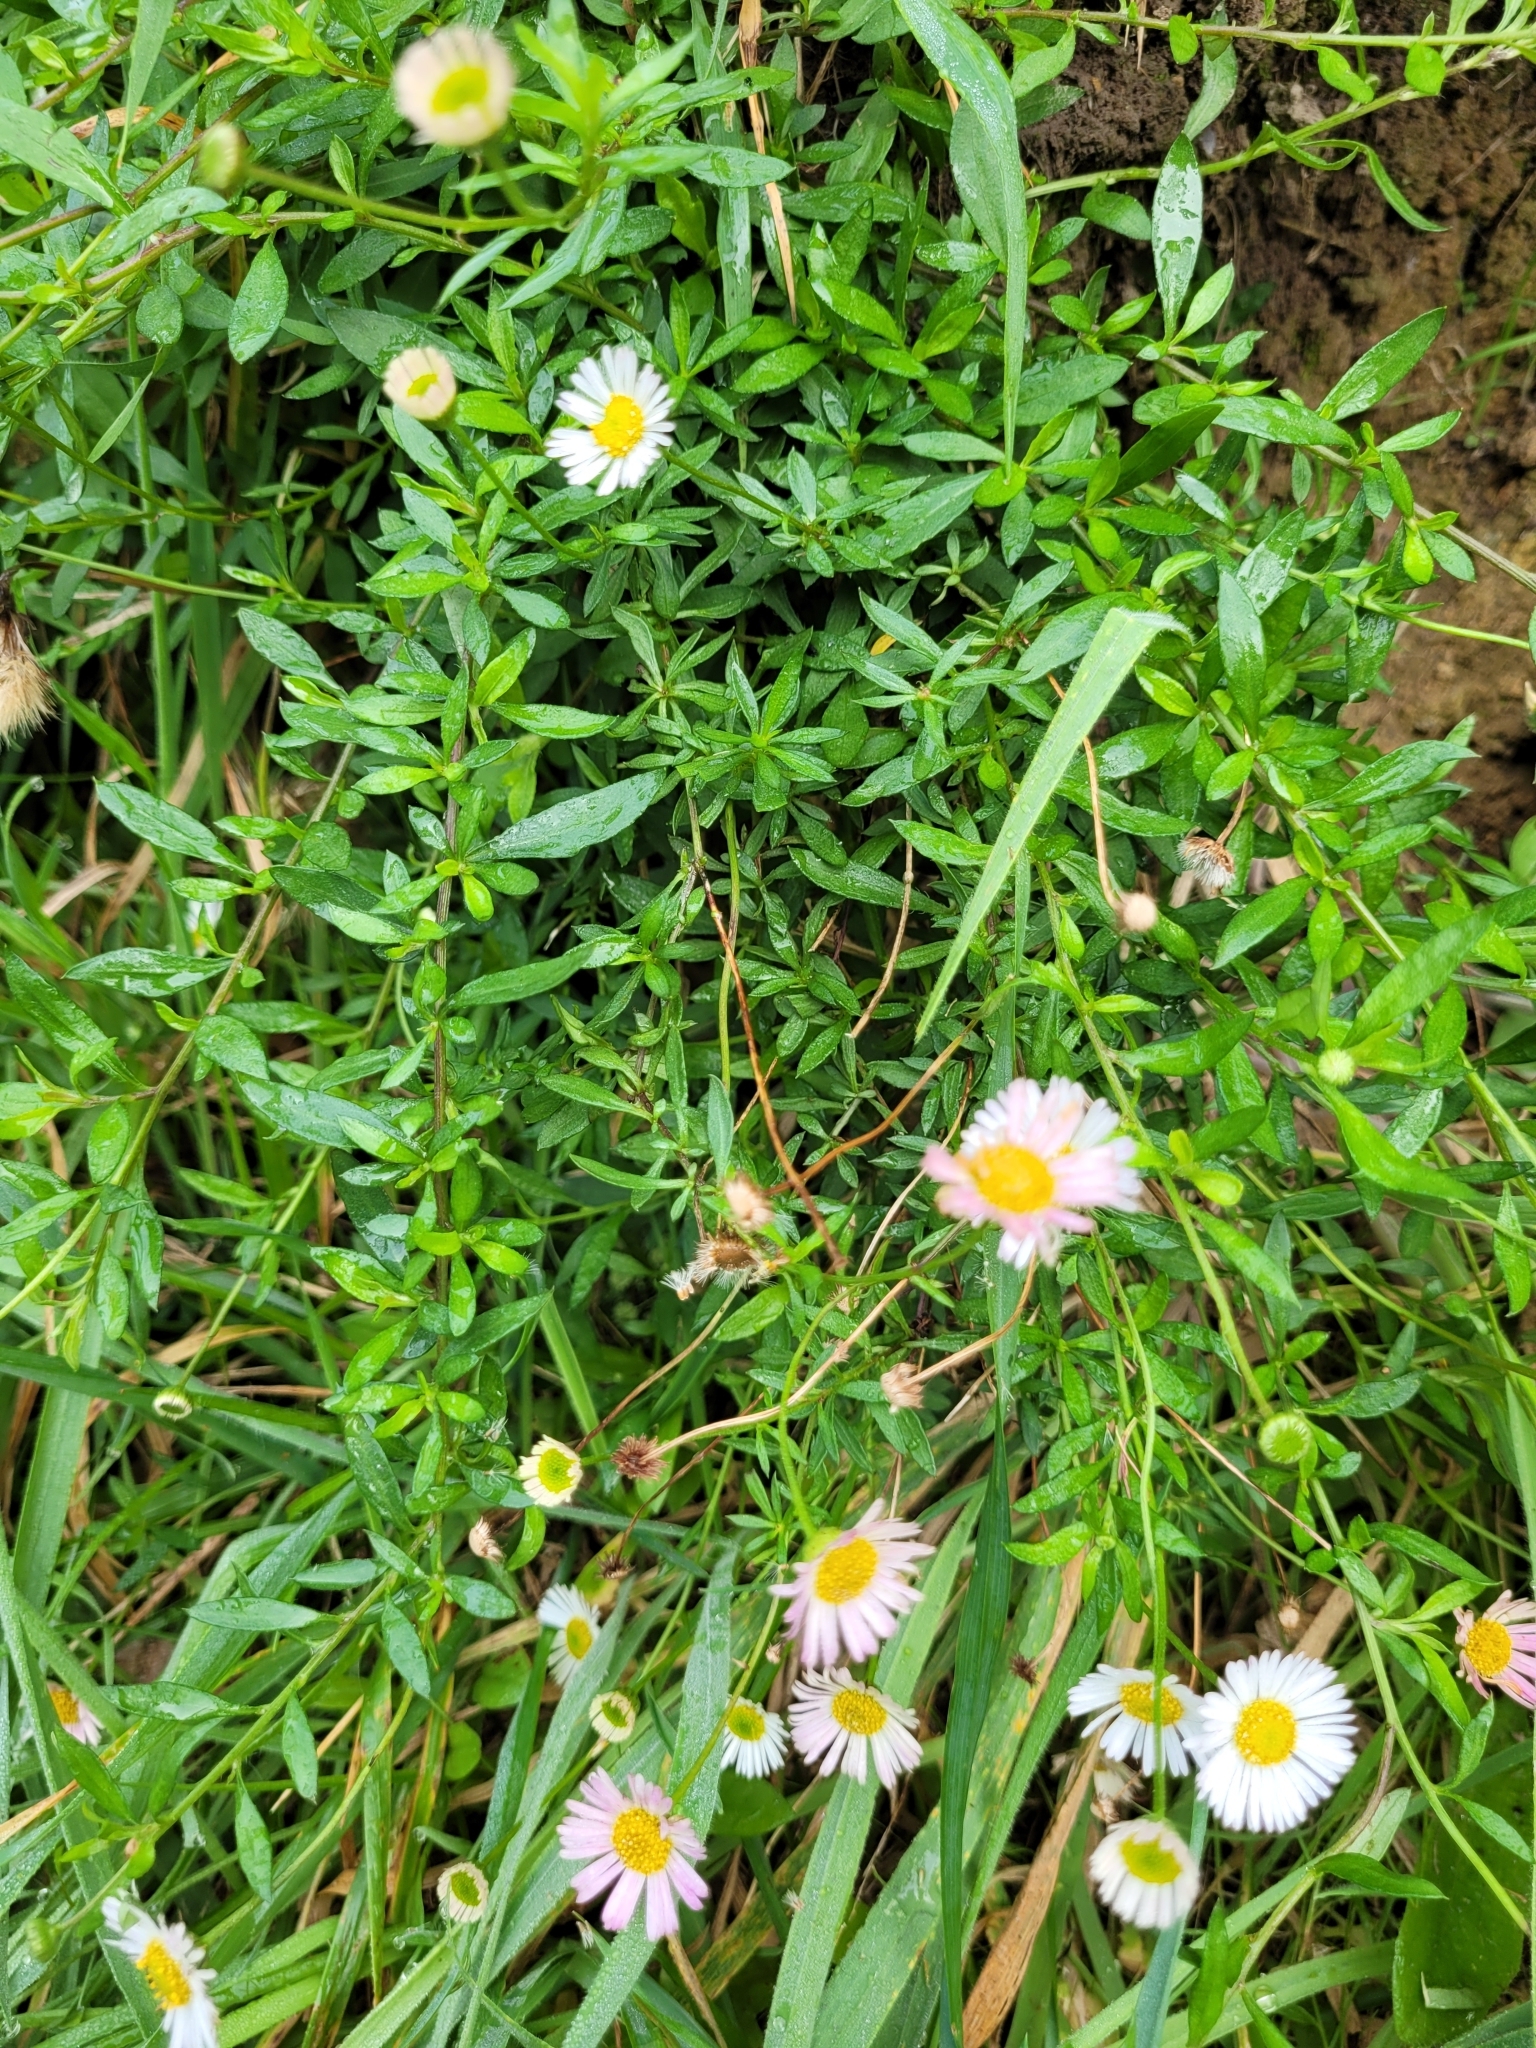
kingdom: Plantae
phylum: Tracheophyta
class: Magnoliopsida
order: Asterales
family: Asteraceae
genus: Erigeron
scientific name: Erigeron karvinskianus
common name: Mexican fleabane
